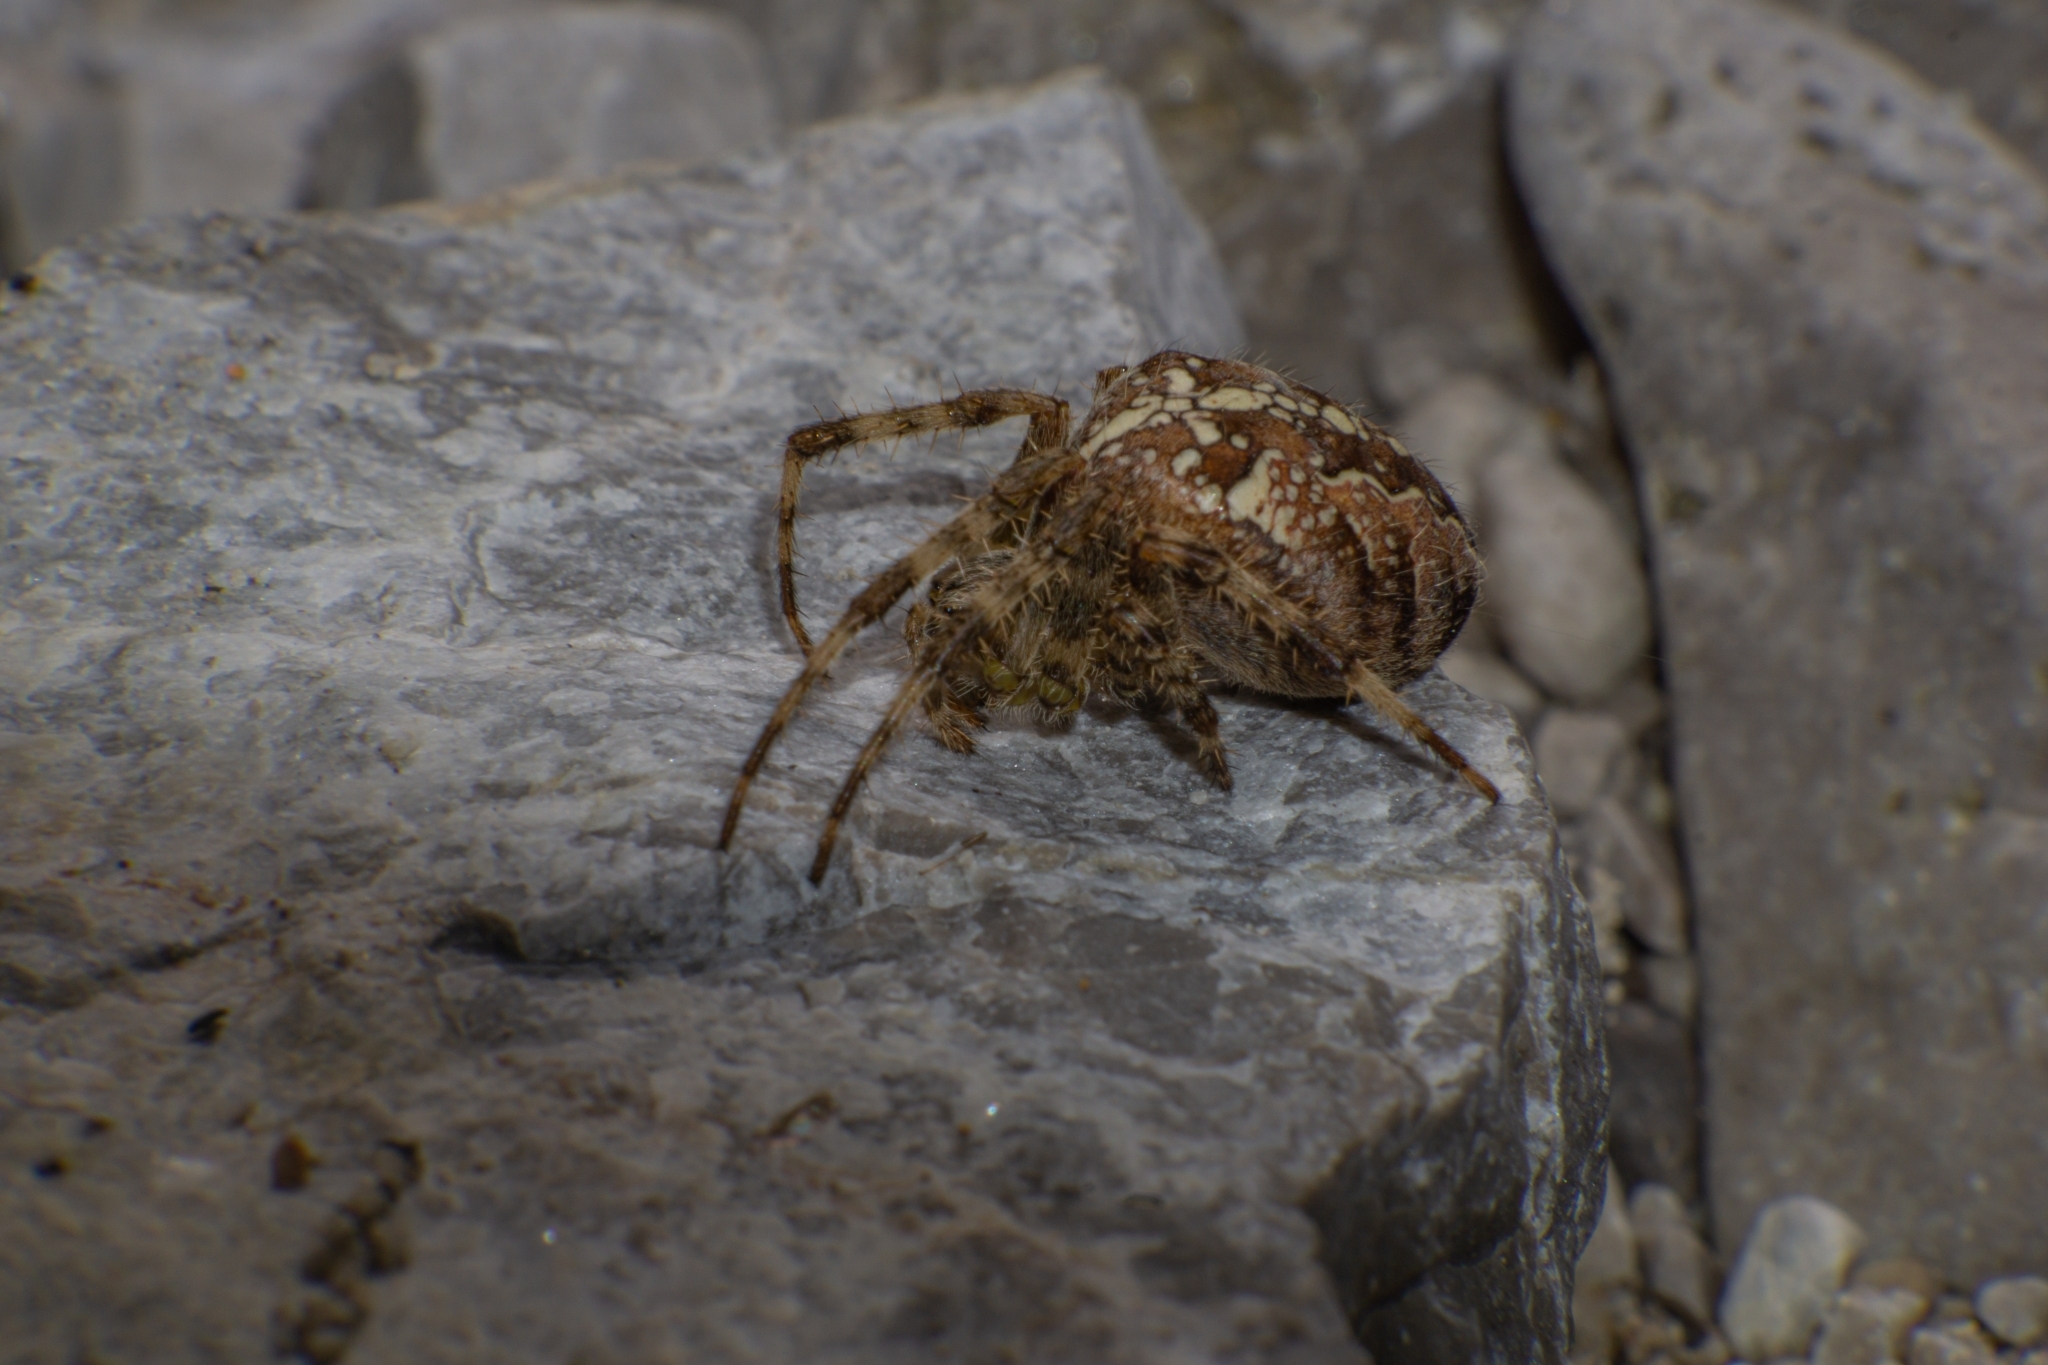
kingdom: Animalia
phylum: Arthropoda
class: Arachnida
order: Araneae
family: Araneidae
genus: Araneus
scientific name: Araneus diadematus
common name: Cross orbweaver
